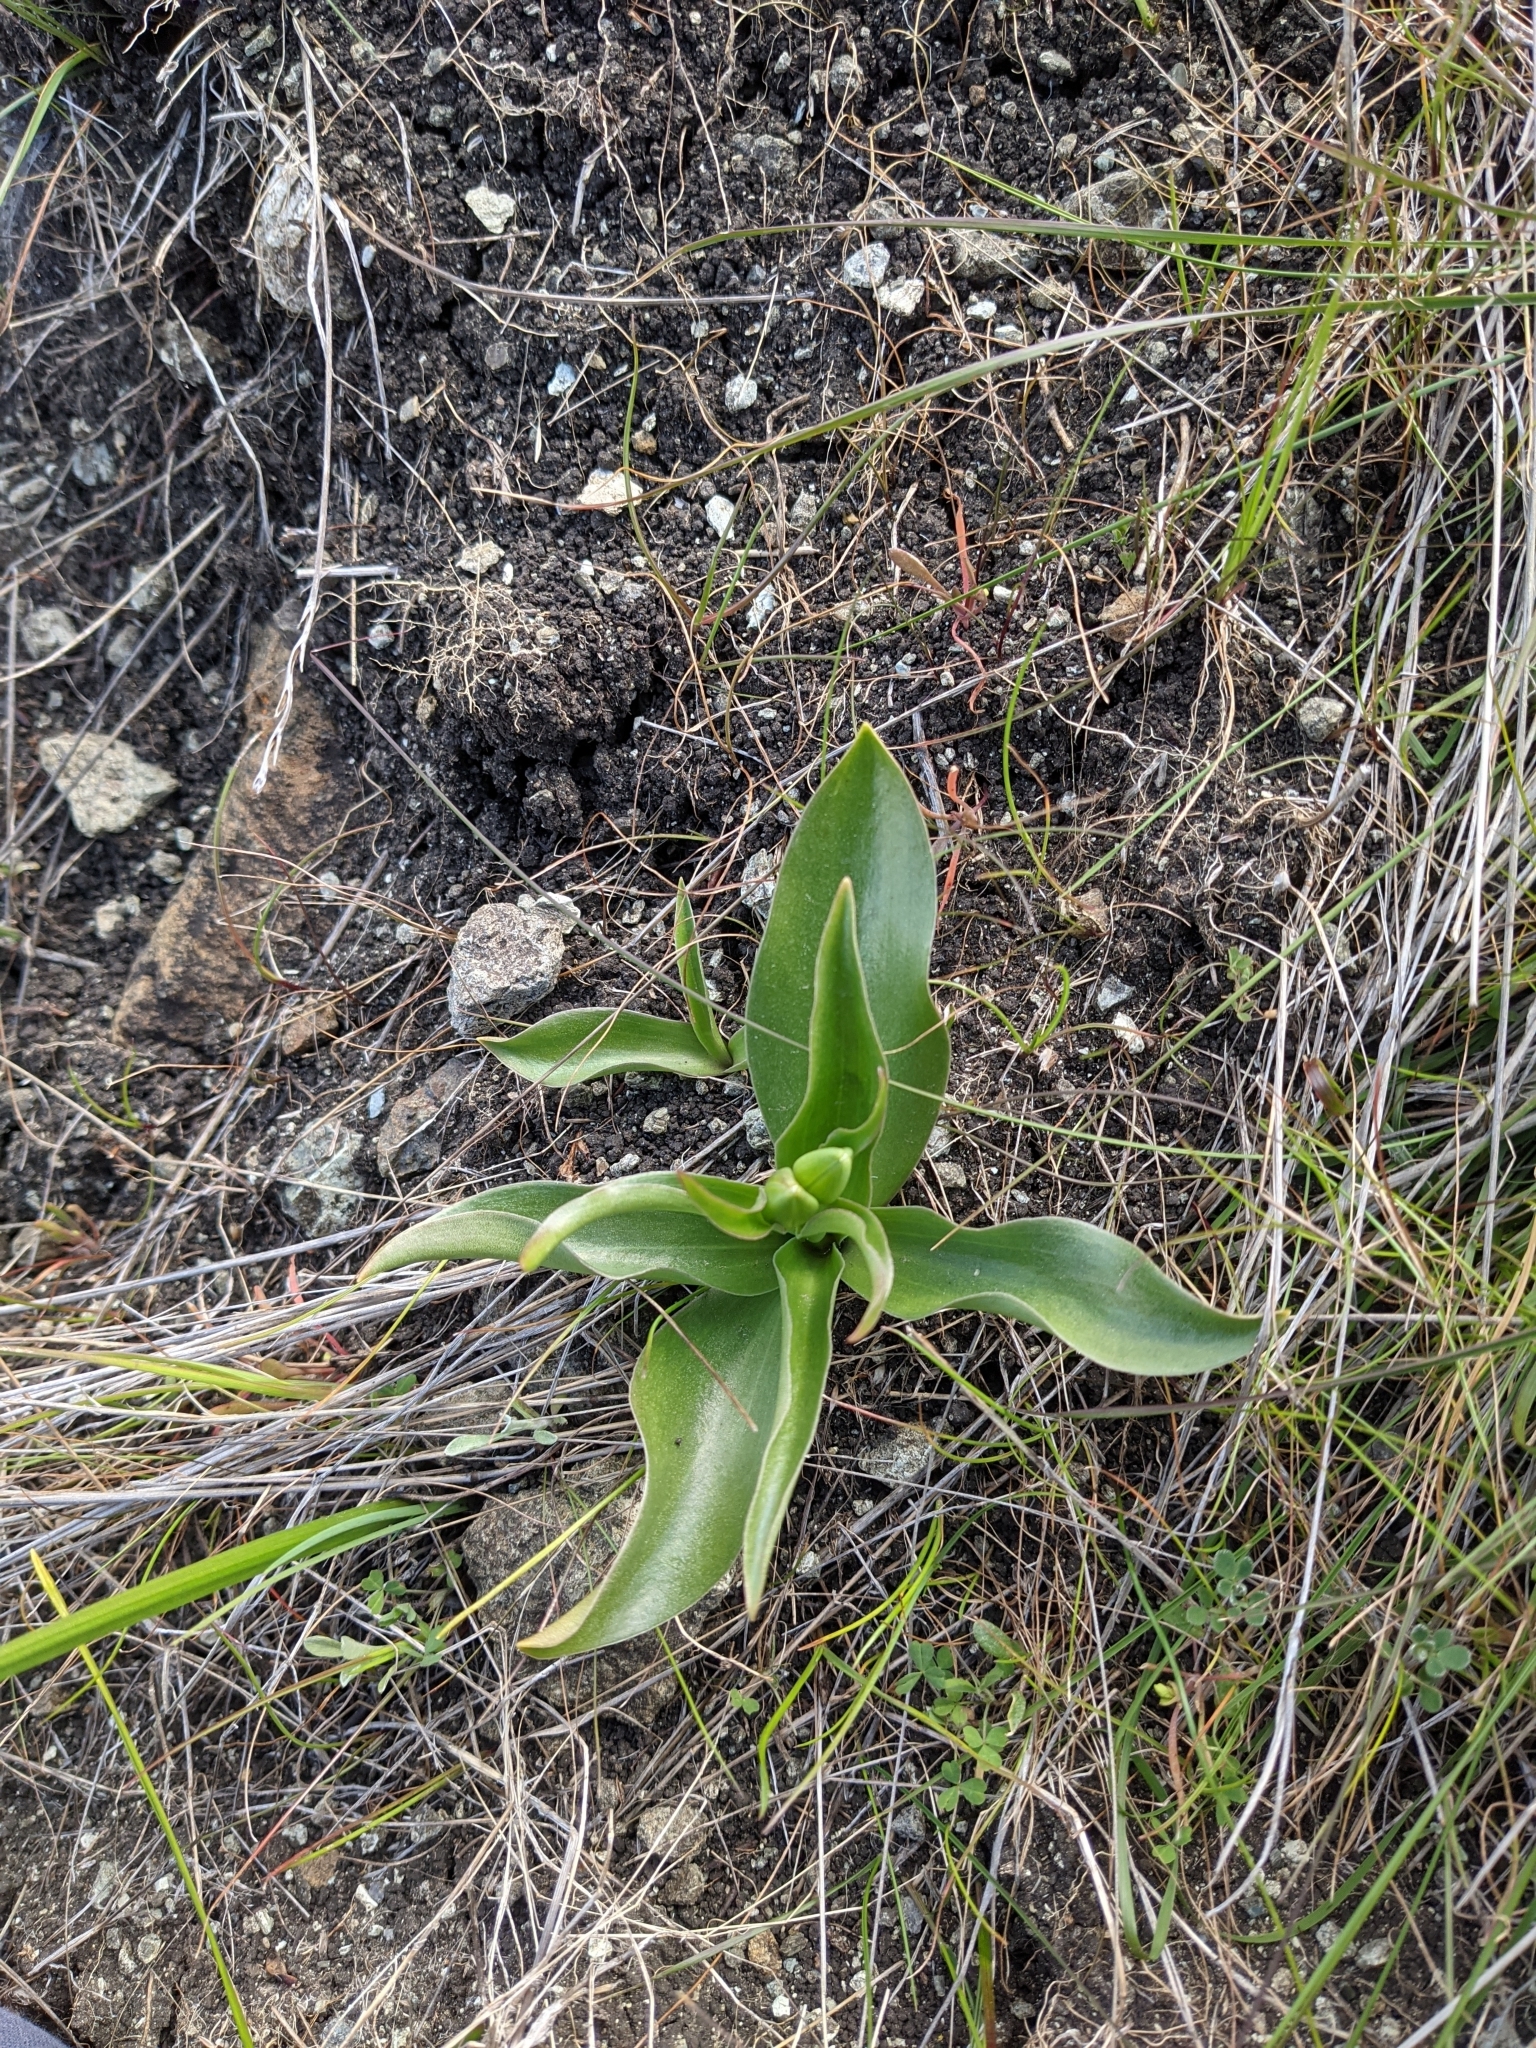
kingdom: Plantae
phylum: Tracheophyta
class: Liliopsida
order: Liliales
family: Liliaceae
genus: Fritillaria
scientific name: Fritillaria biflora
